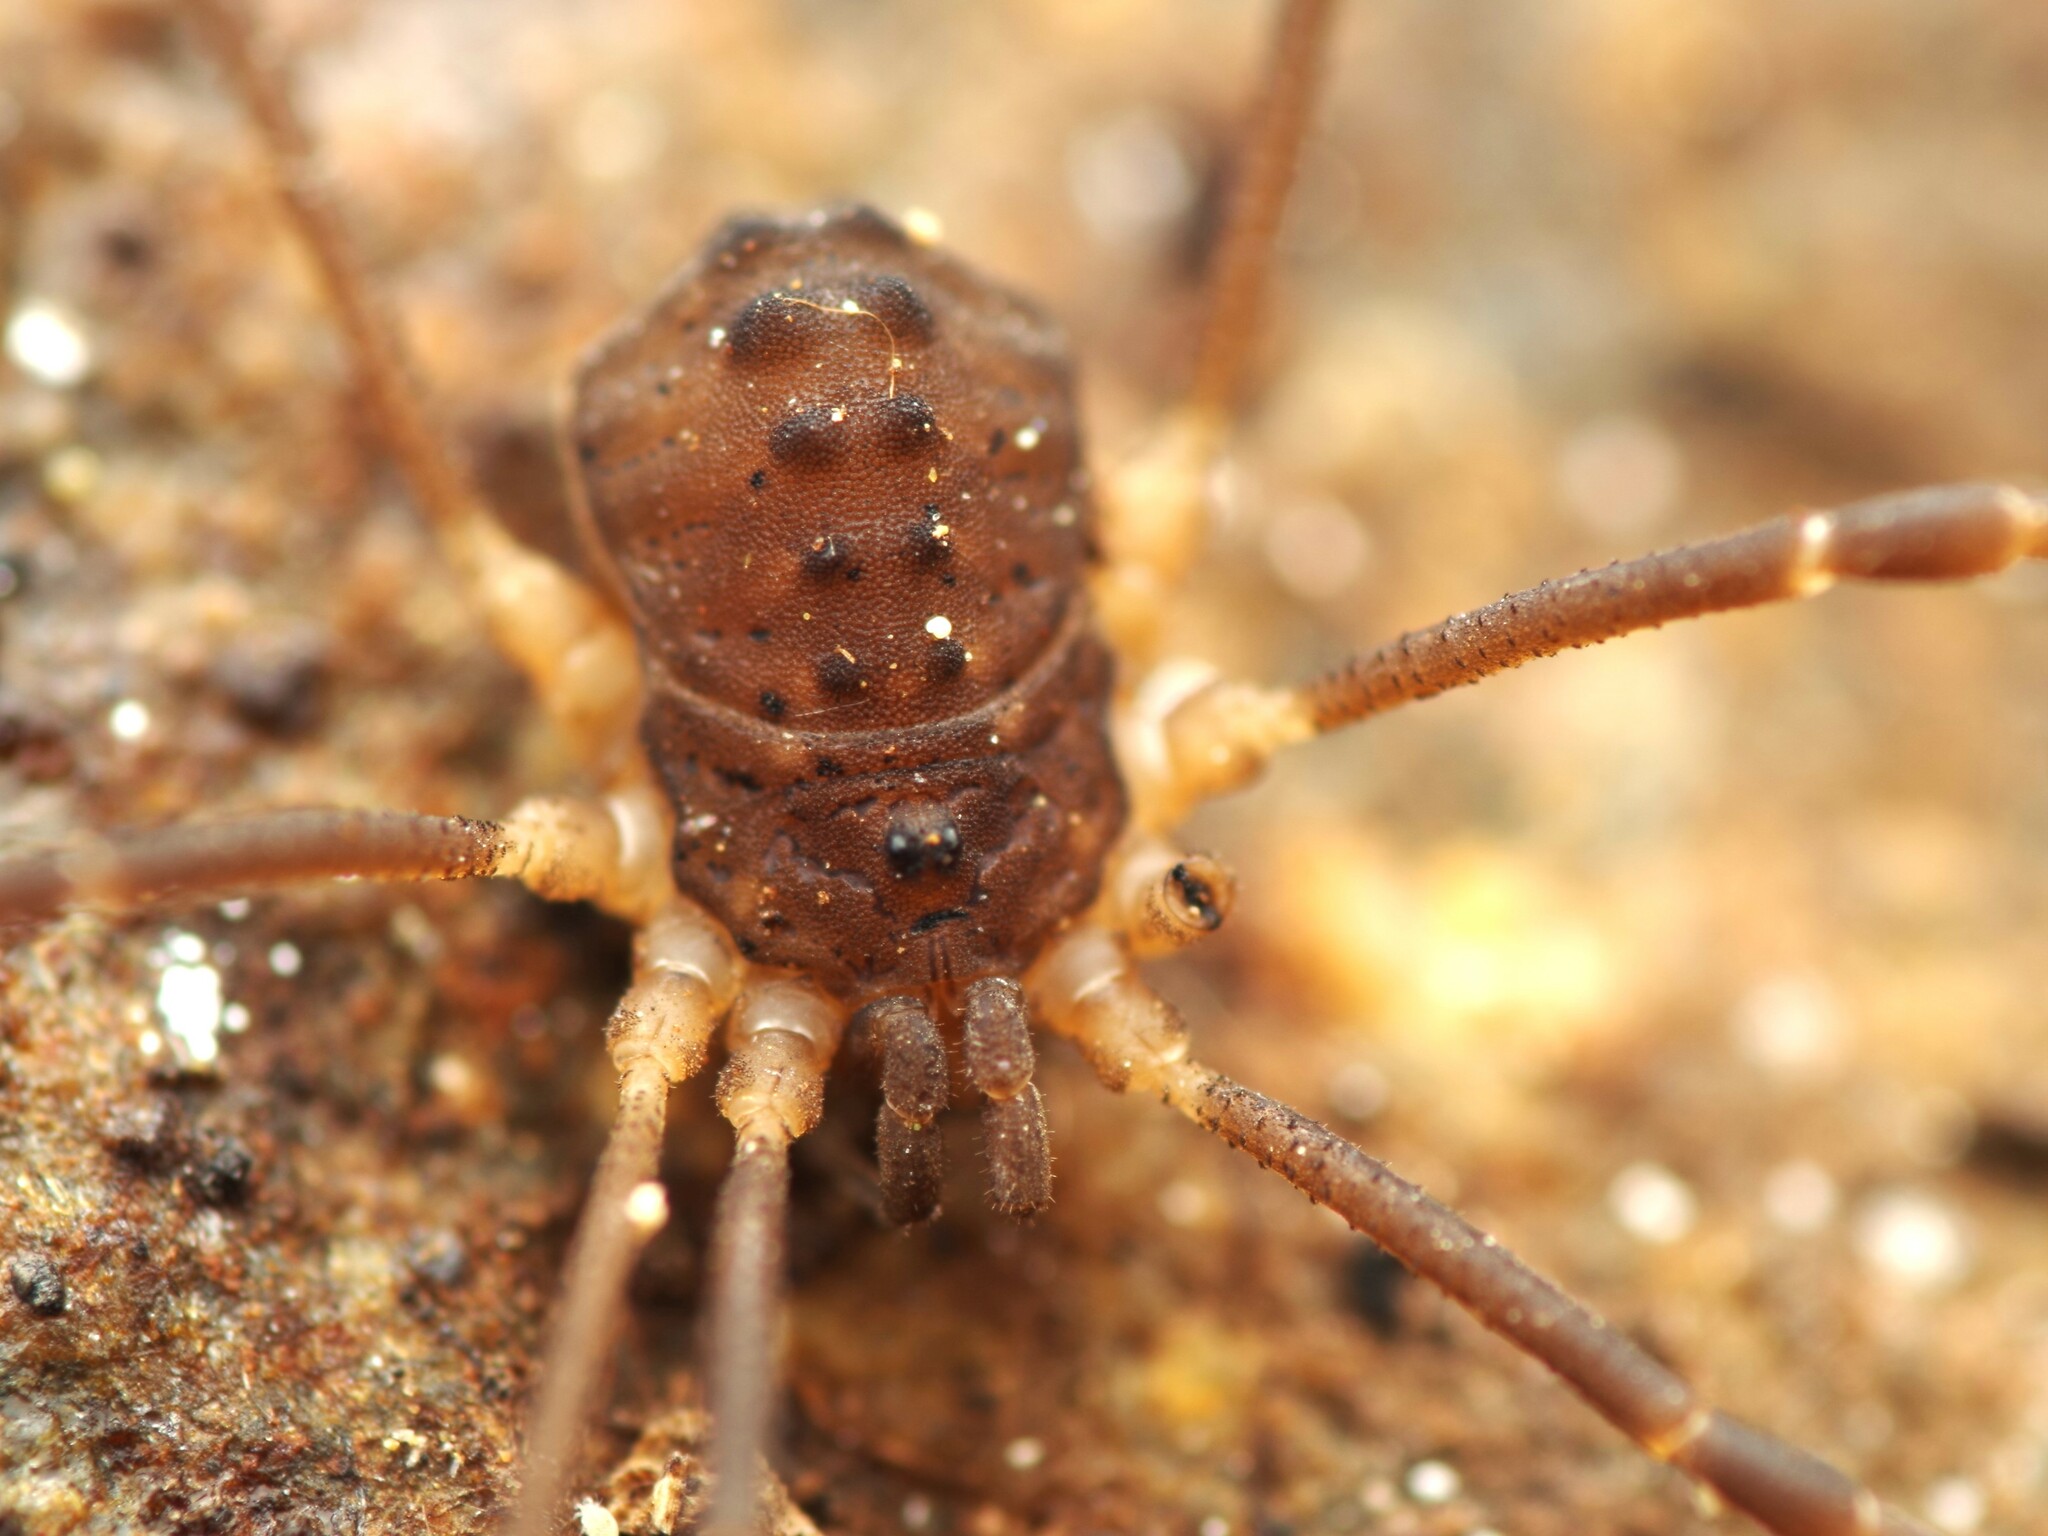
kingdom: Animalia
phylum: Arthropoda
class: Arachnida
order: Opiliones
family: Sclerosomatidae
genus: Astrobunus
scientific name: Astrobunus grallator
